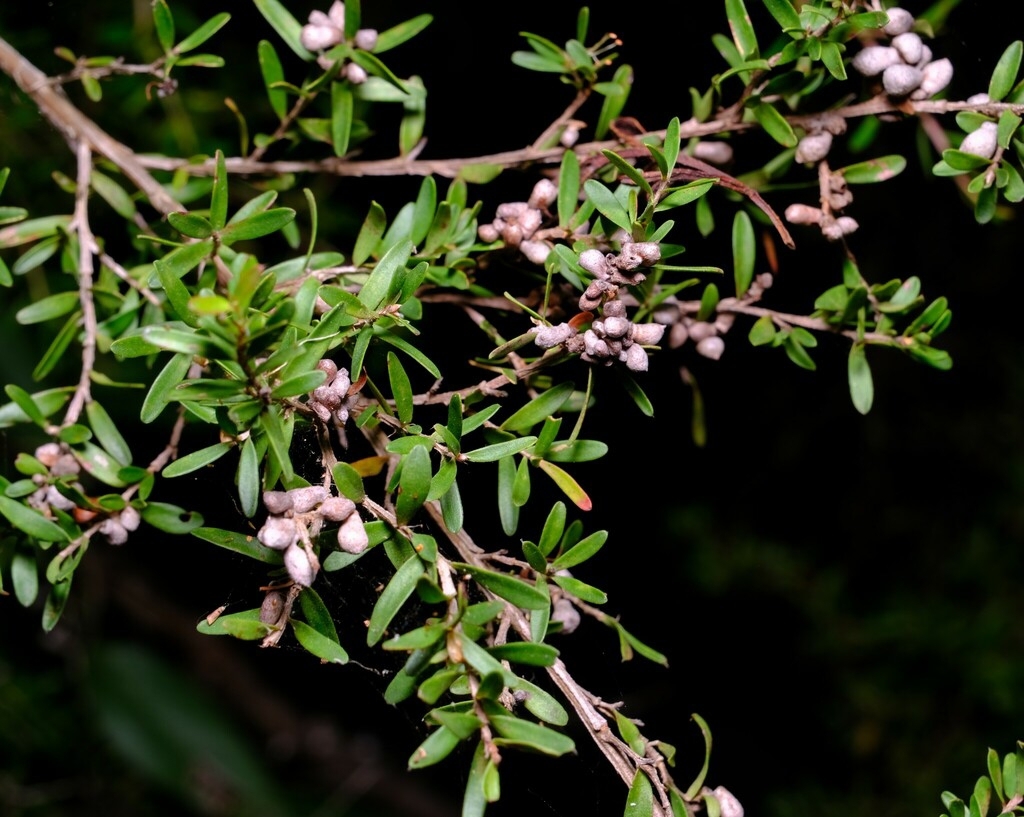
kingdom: Animalia
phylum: Arthropoda
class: Insecta
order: Hemiptera
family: Asterolecaniidae
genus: Eremococcus
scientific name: Eremococcus
